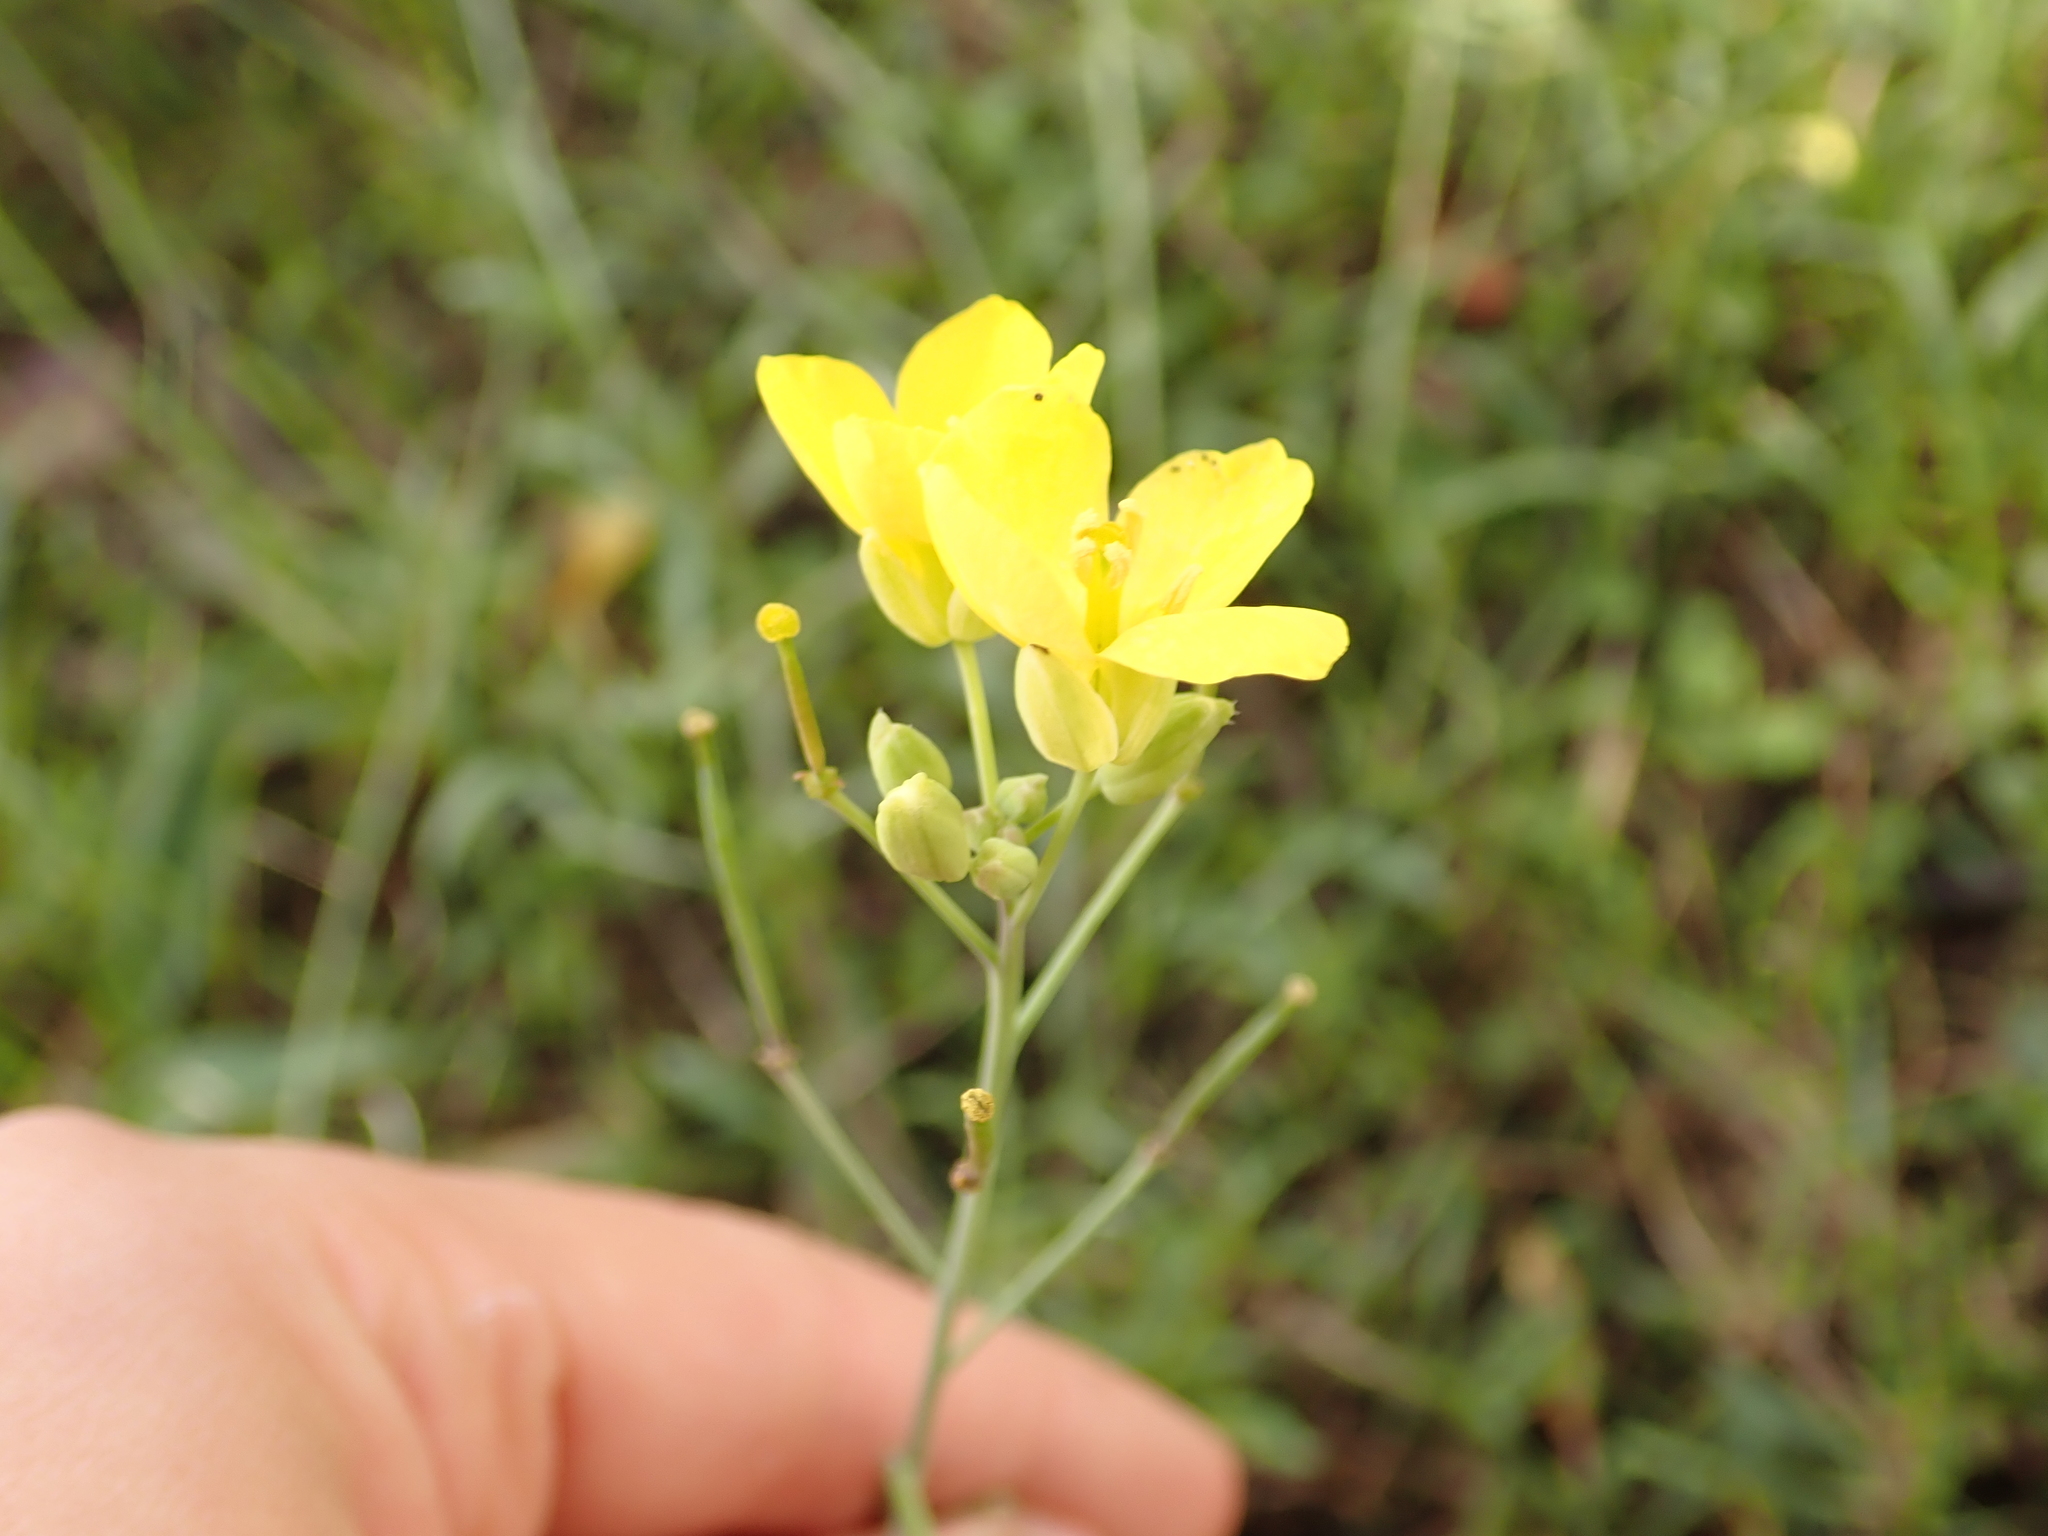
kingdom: Plantae
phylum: Tracheophyta
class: Magnoliopsida
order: Brassicales
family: Brassicaceae
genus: Diplotaxis
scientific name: Diplotaxis tenuifolia
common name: Perennial wall-rocket
